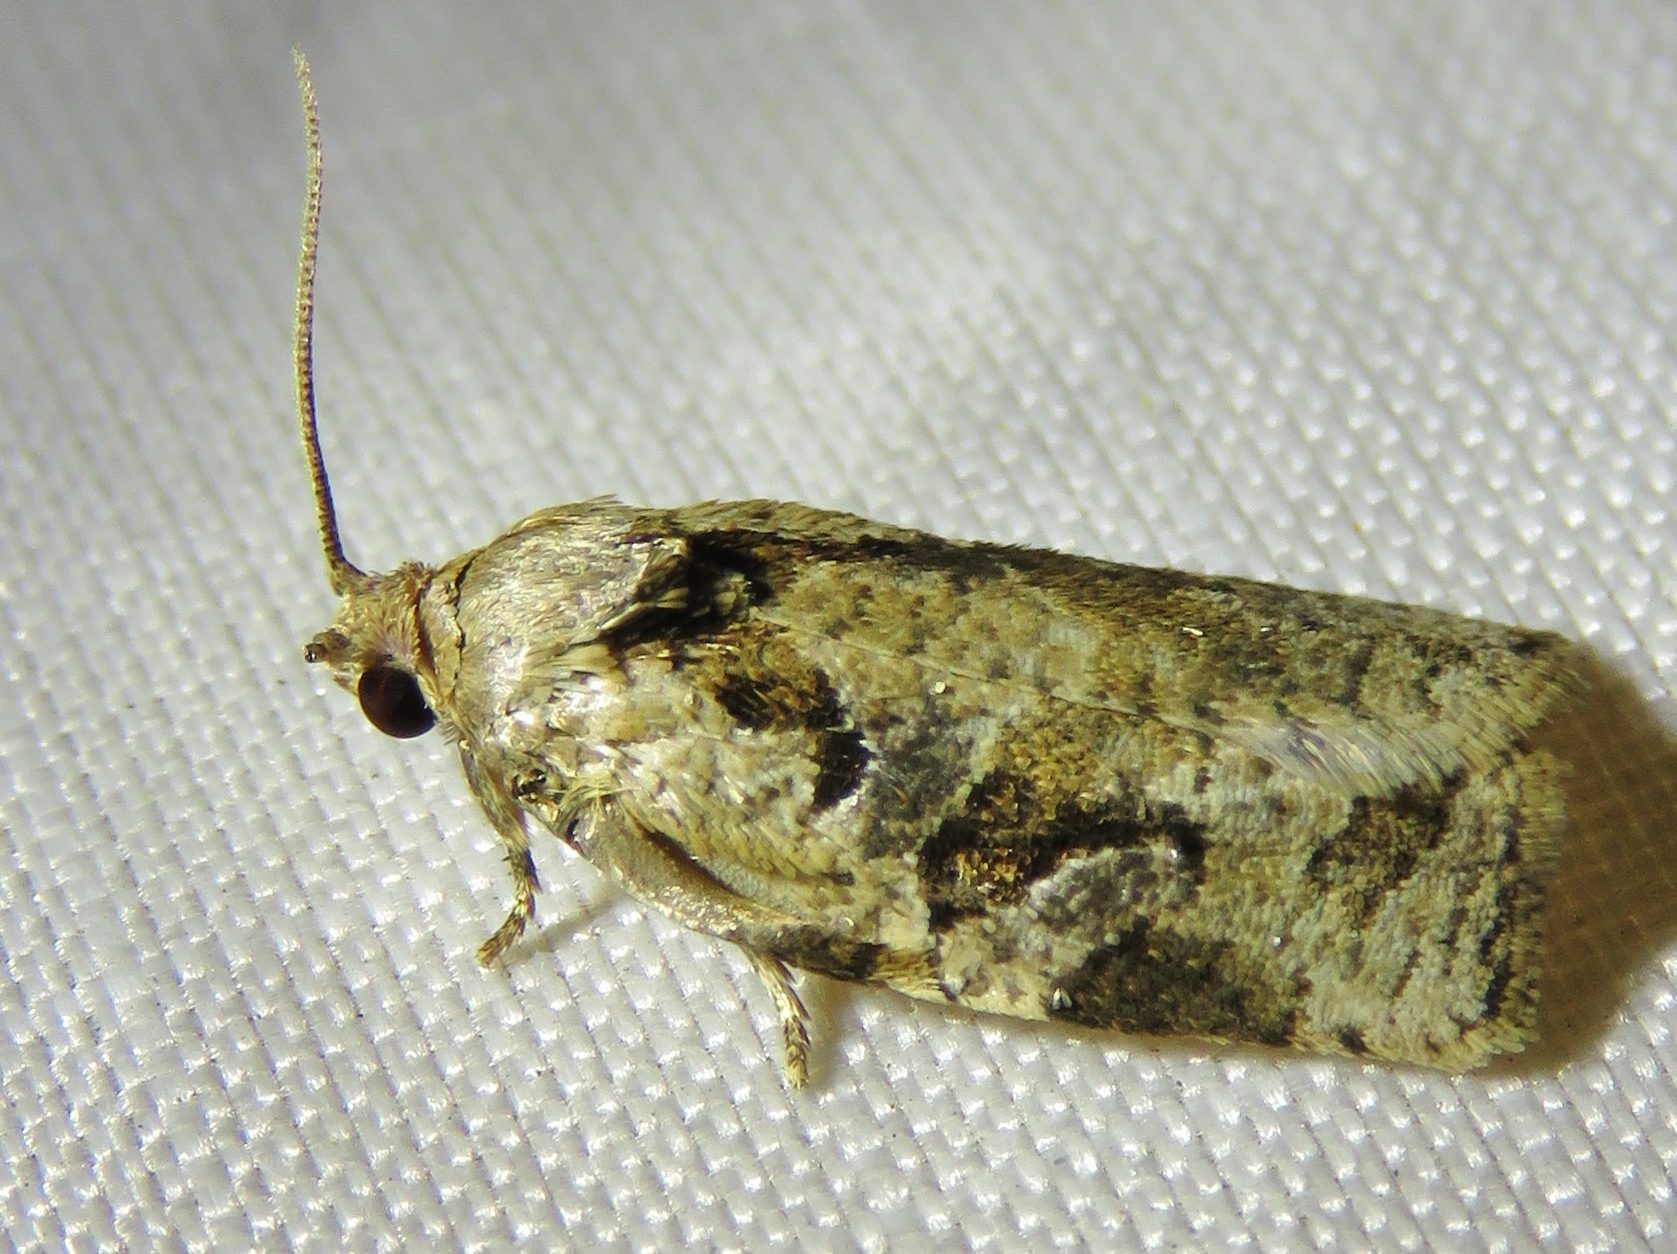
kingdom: Animalia
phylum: Arthropoda
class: Insecta
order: Lepidoptera
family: Tortricidae
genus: Archips
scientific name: Archips grisea
